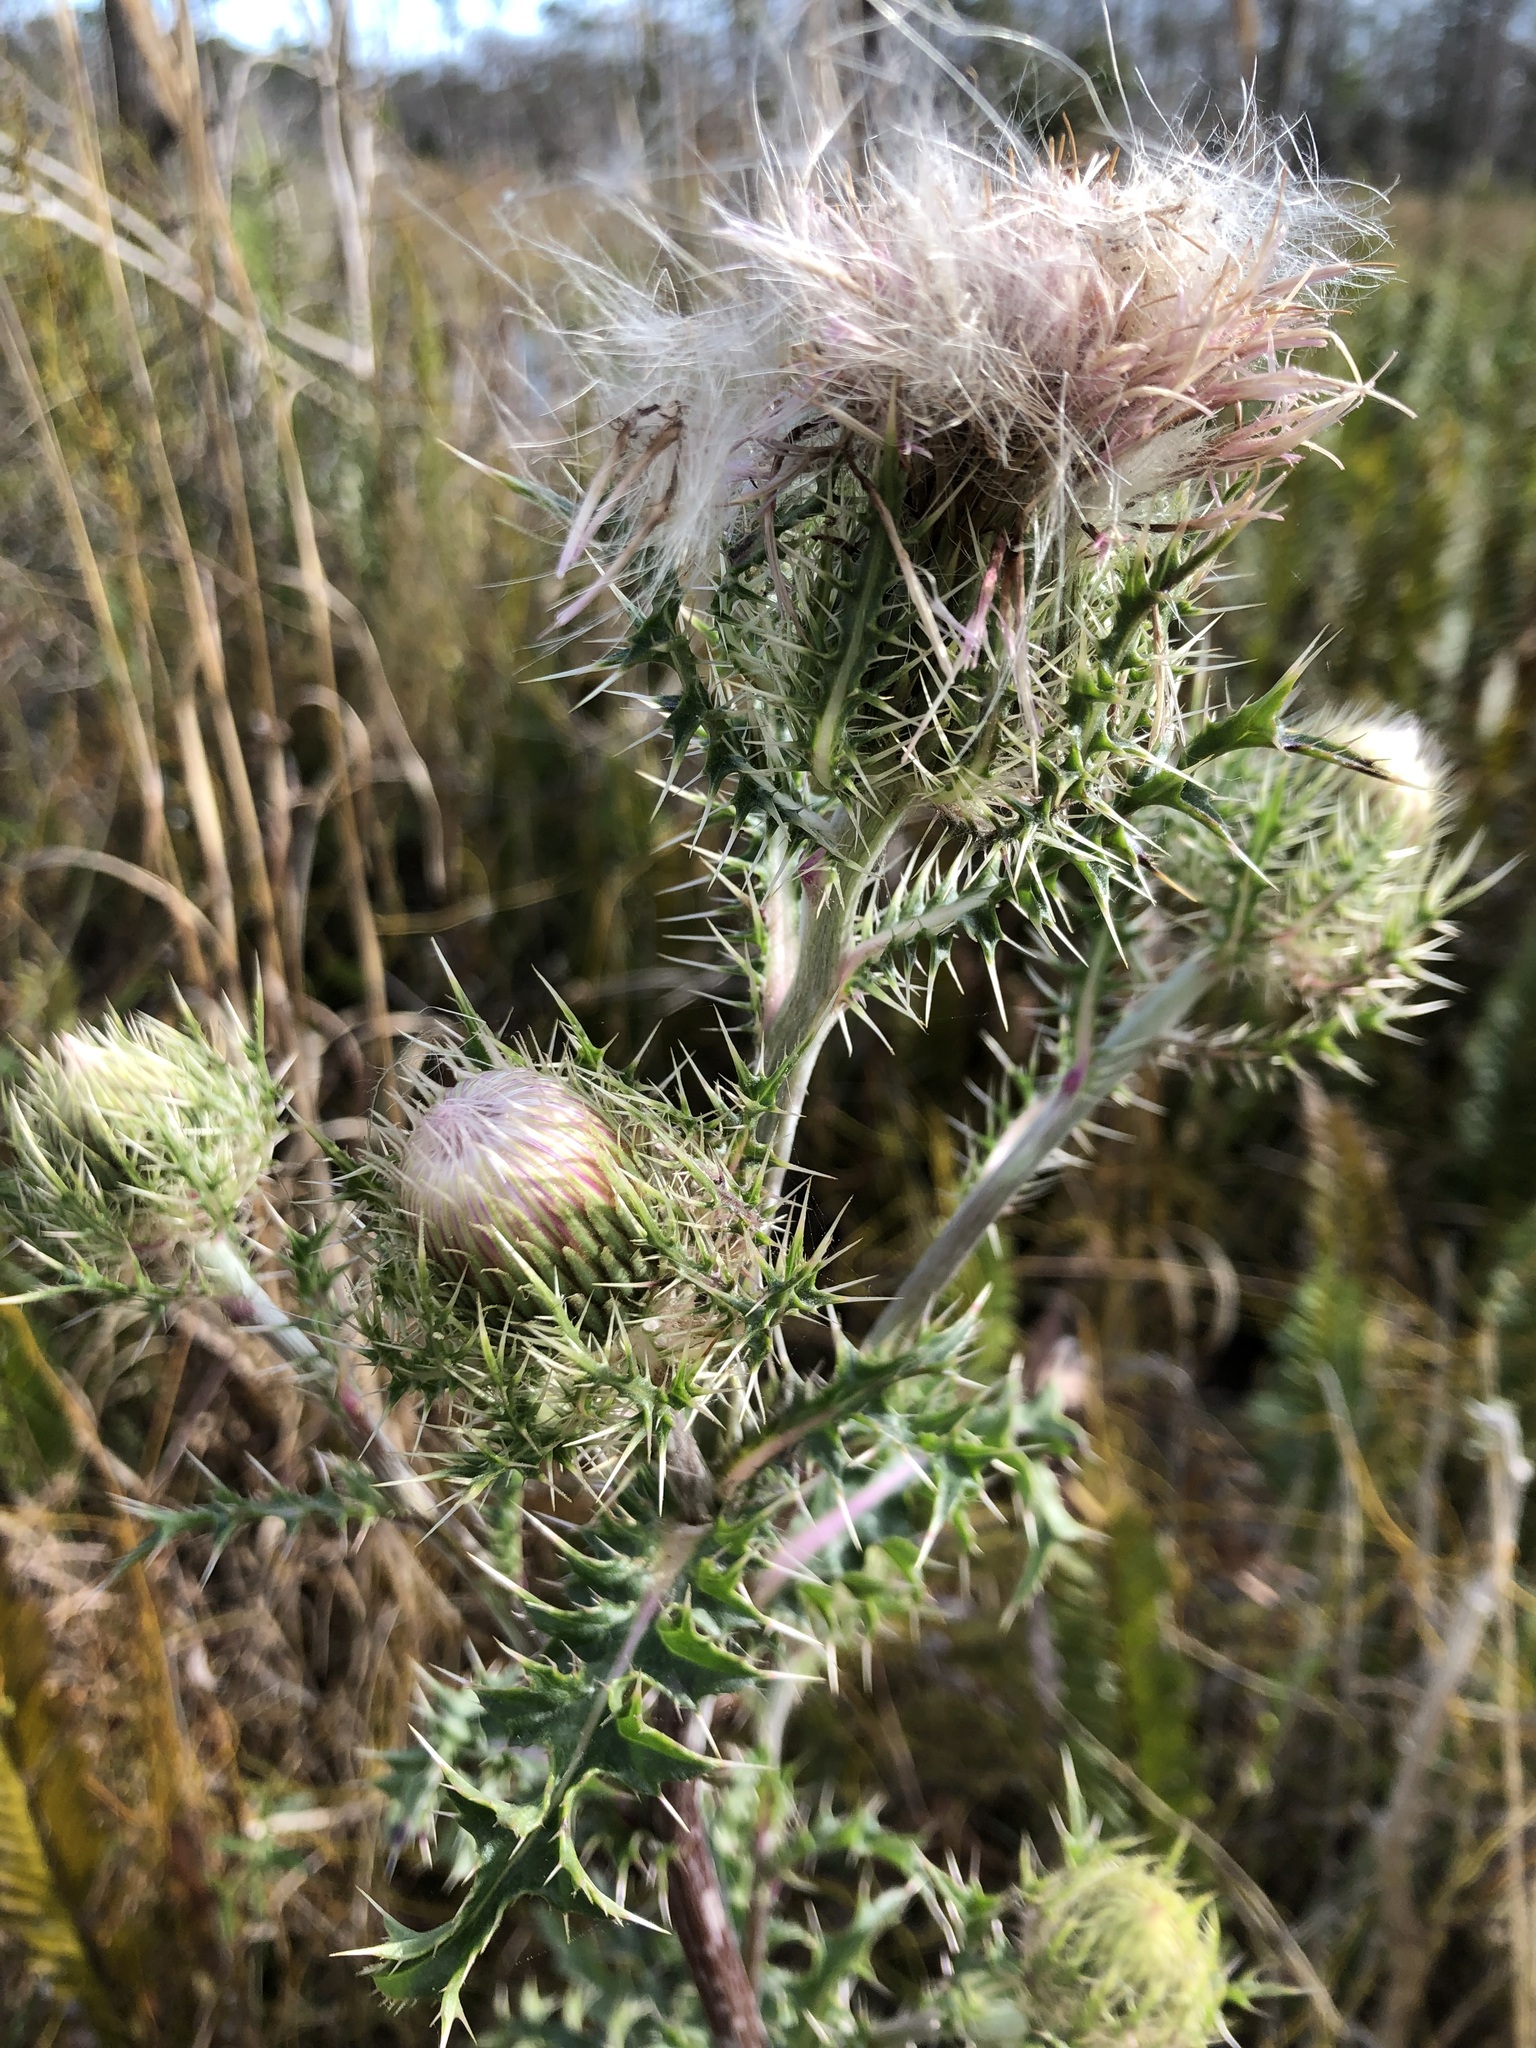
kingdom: Plantae
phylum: Tracheophyta
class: Magnoliopsida
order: Asterales
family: Asteraceae
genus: Cirsium
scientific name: Cirsium horridulum
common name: Bristly thistle
